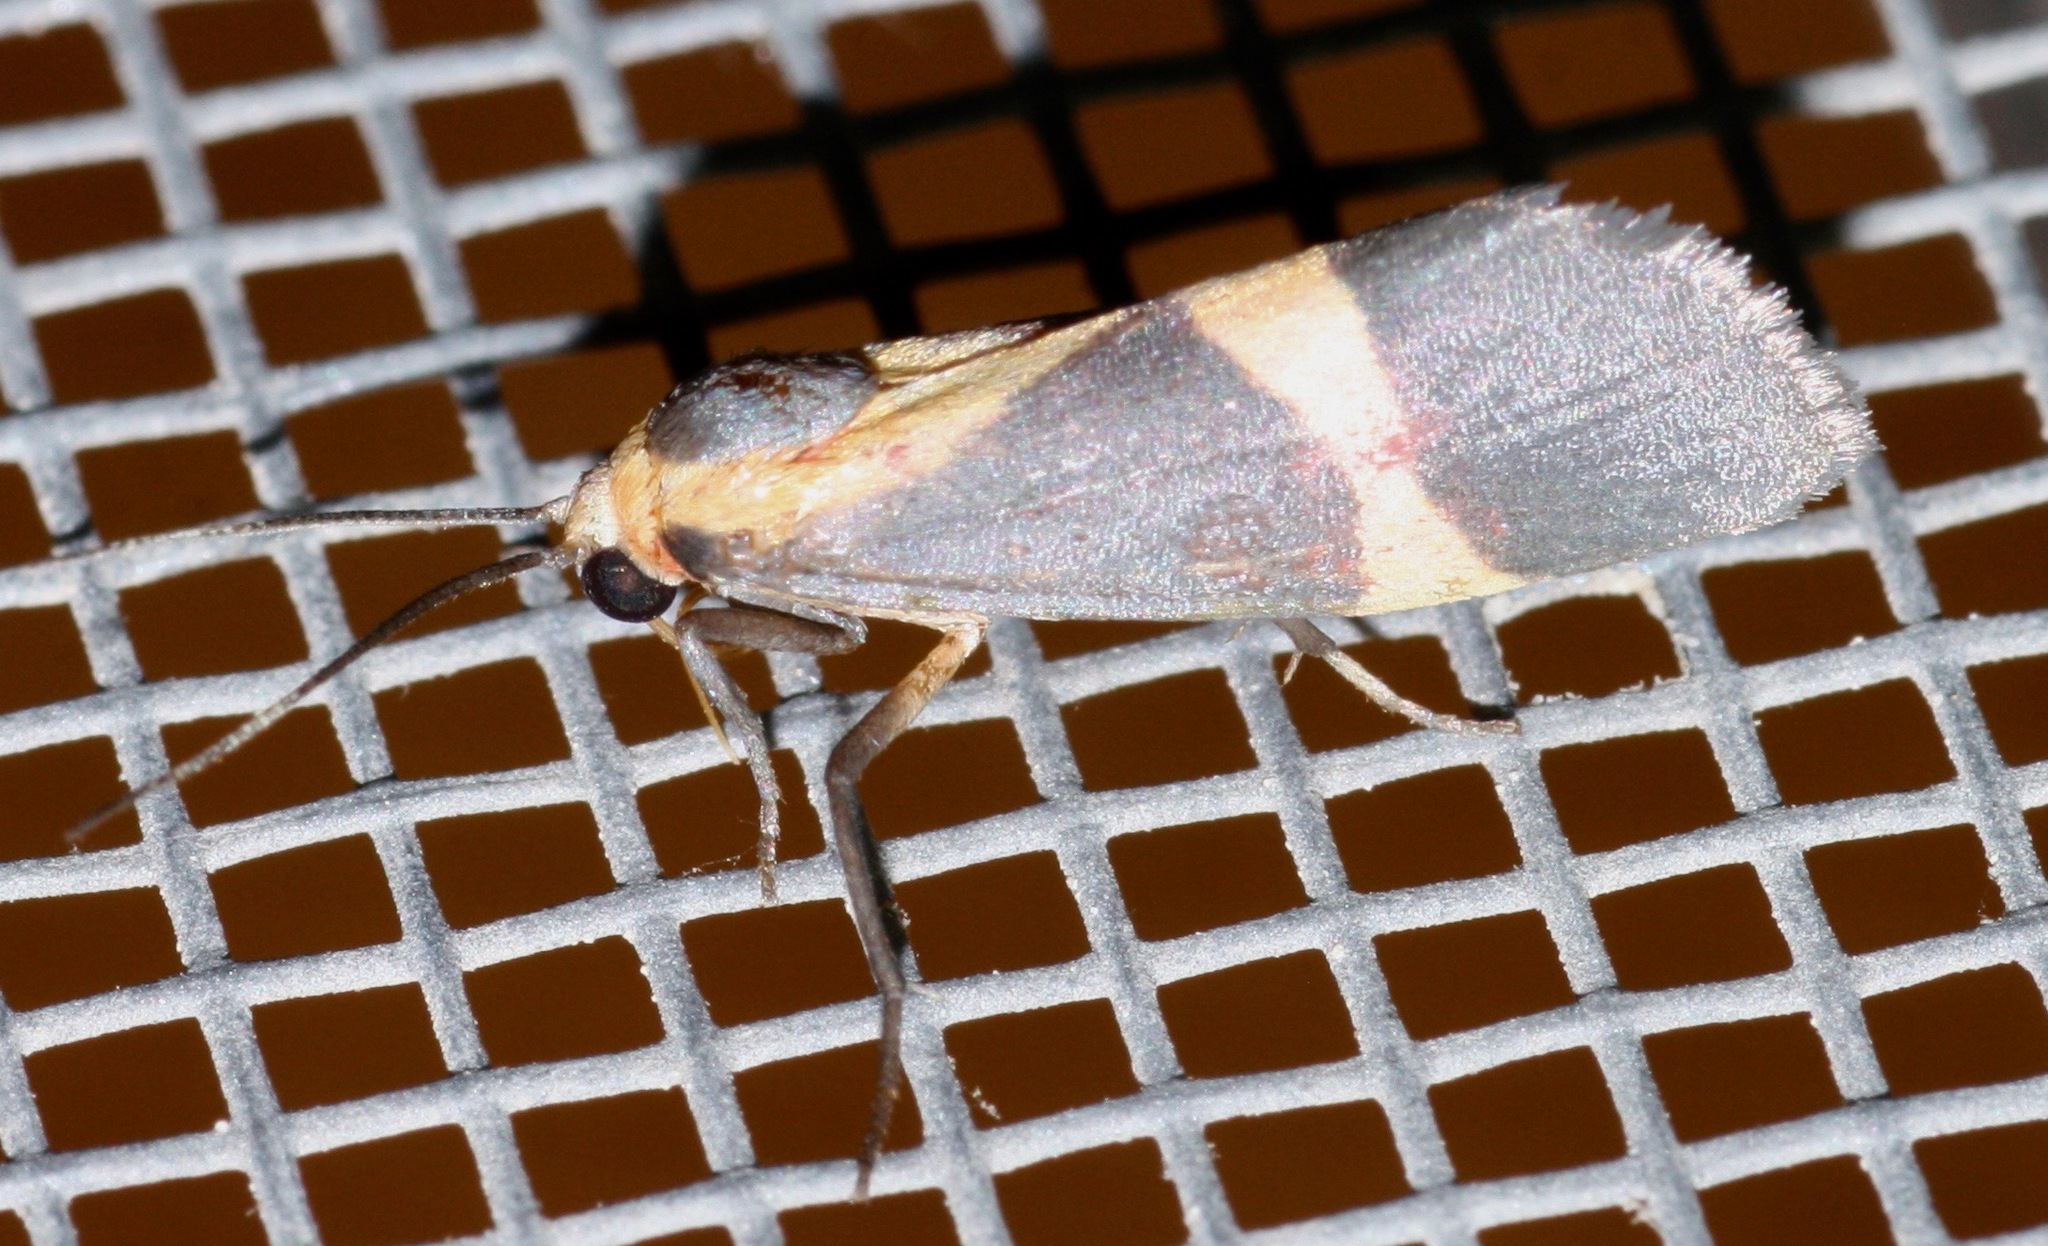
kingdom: Animalia
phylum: Arthropoda
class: Insecta
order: Lepidoptera
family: Erebidae
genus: Cisthene
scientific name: Cisthene tenuifascia
